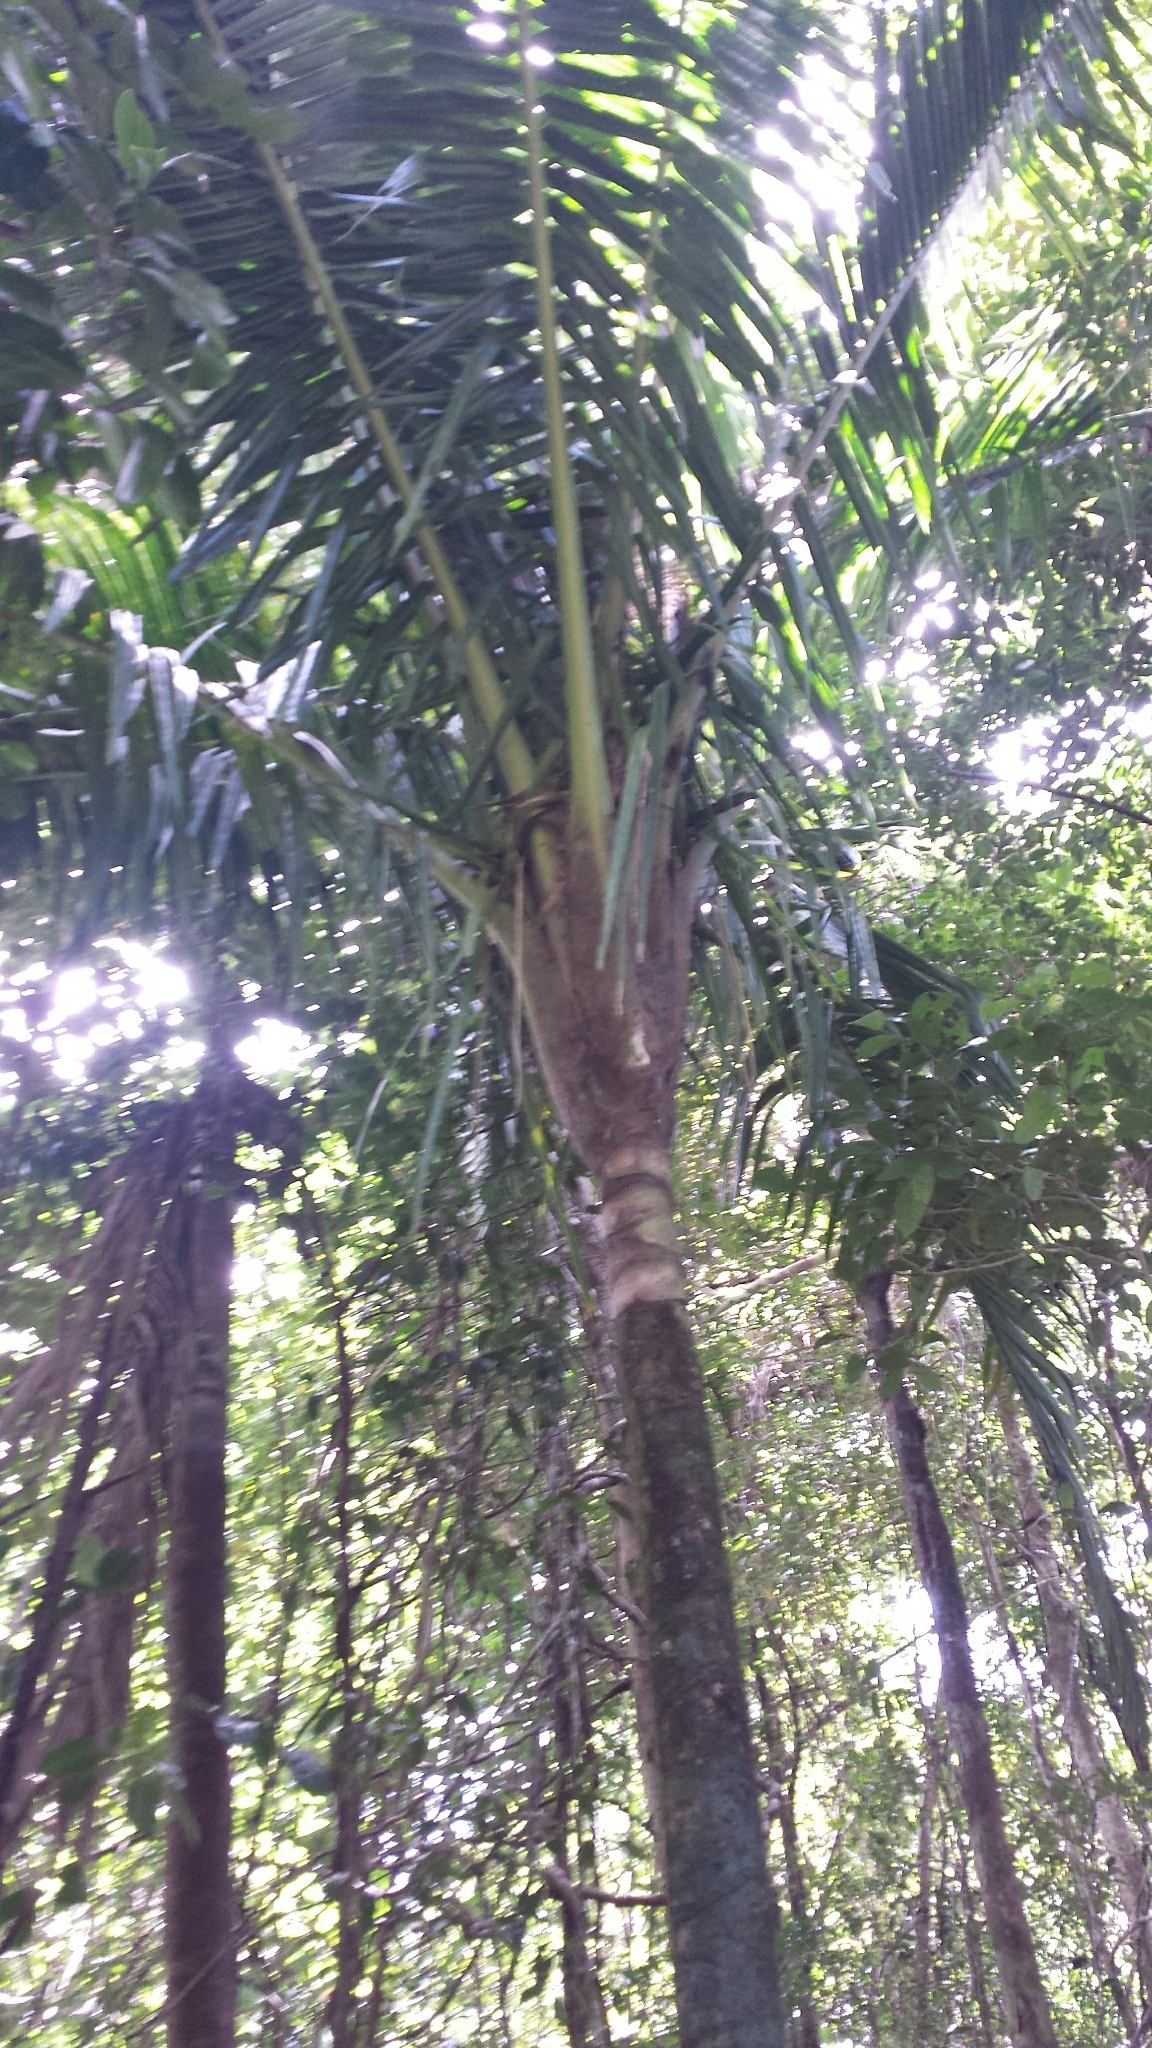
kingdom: Plantae
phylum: Tracheophyta
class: Liliopsida
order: Arecales
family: Arecaceae
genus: Ravenea
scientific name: Ravenea dransfieldii
